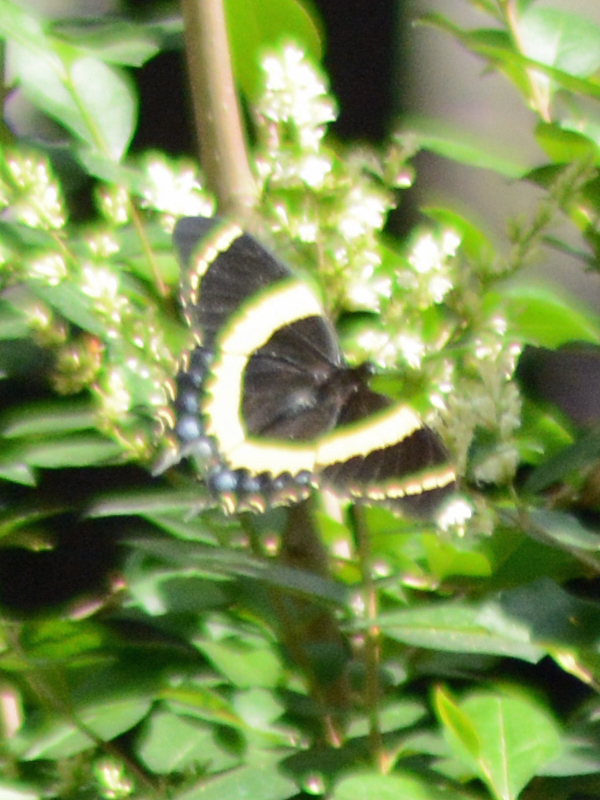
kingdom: Animalia
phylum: Arthropoda
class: Insecta
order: Lepidoptera
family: Papilionidae
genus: Papilio
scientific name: Papilio garamas
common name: Magnificent swallowtail
